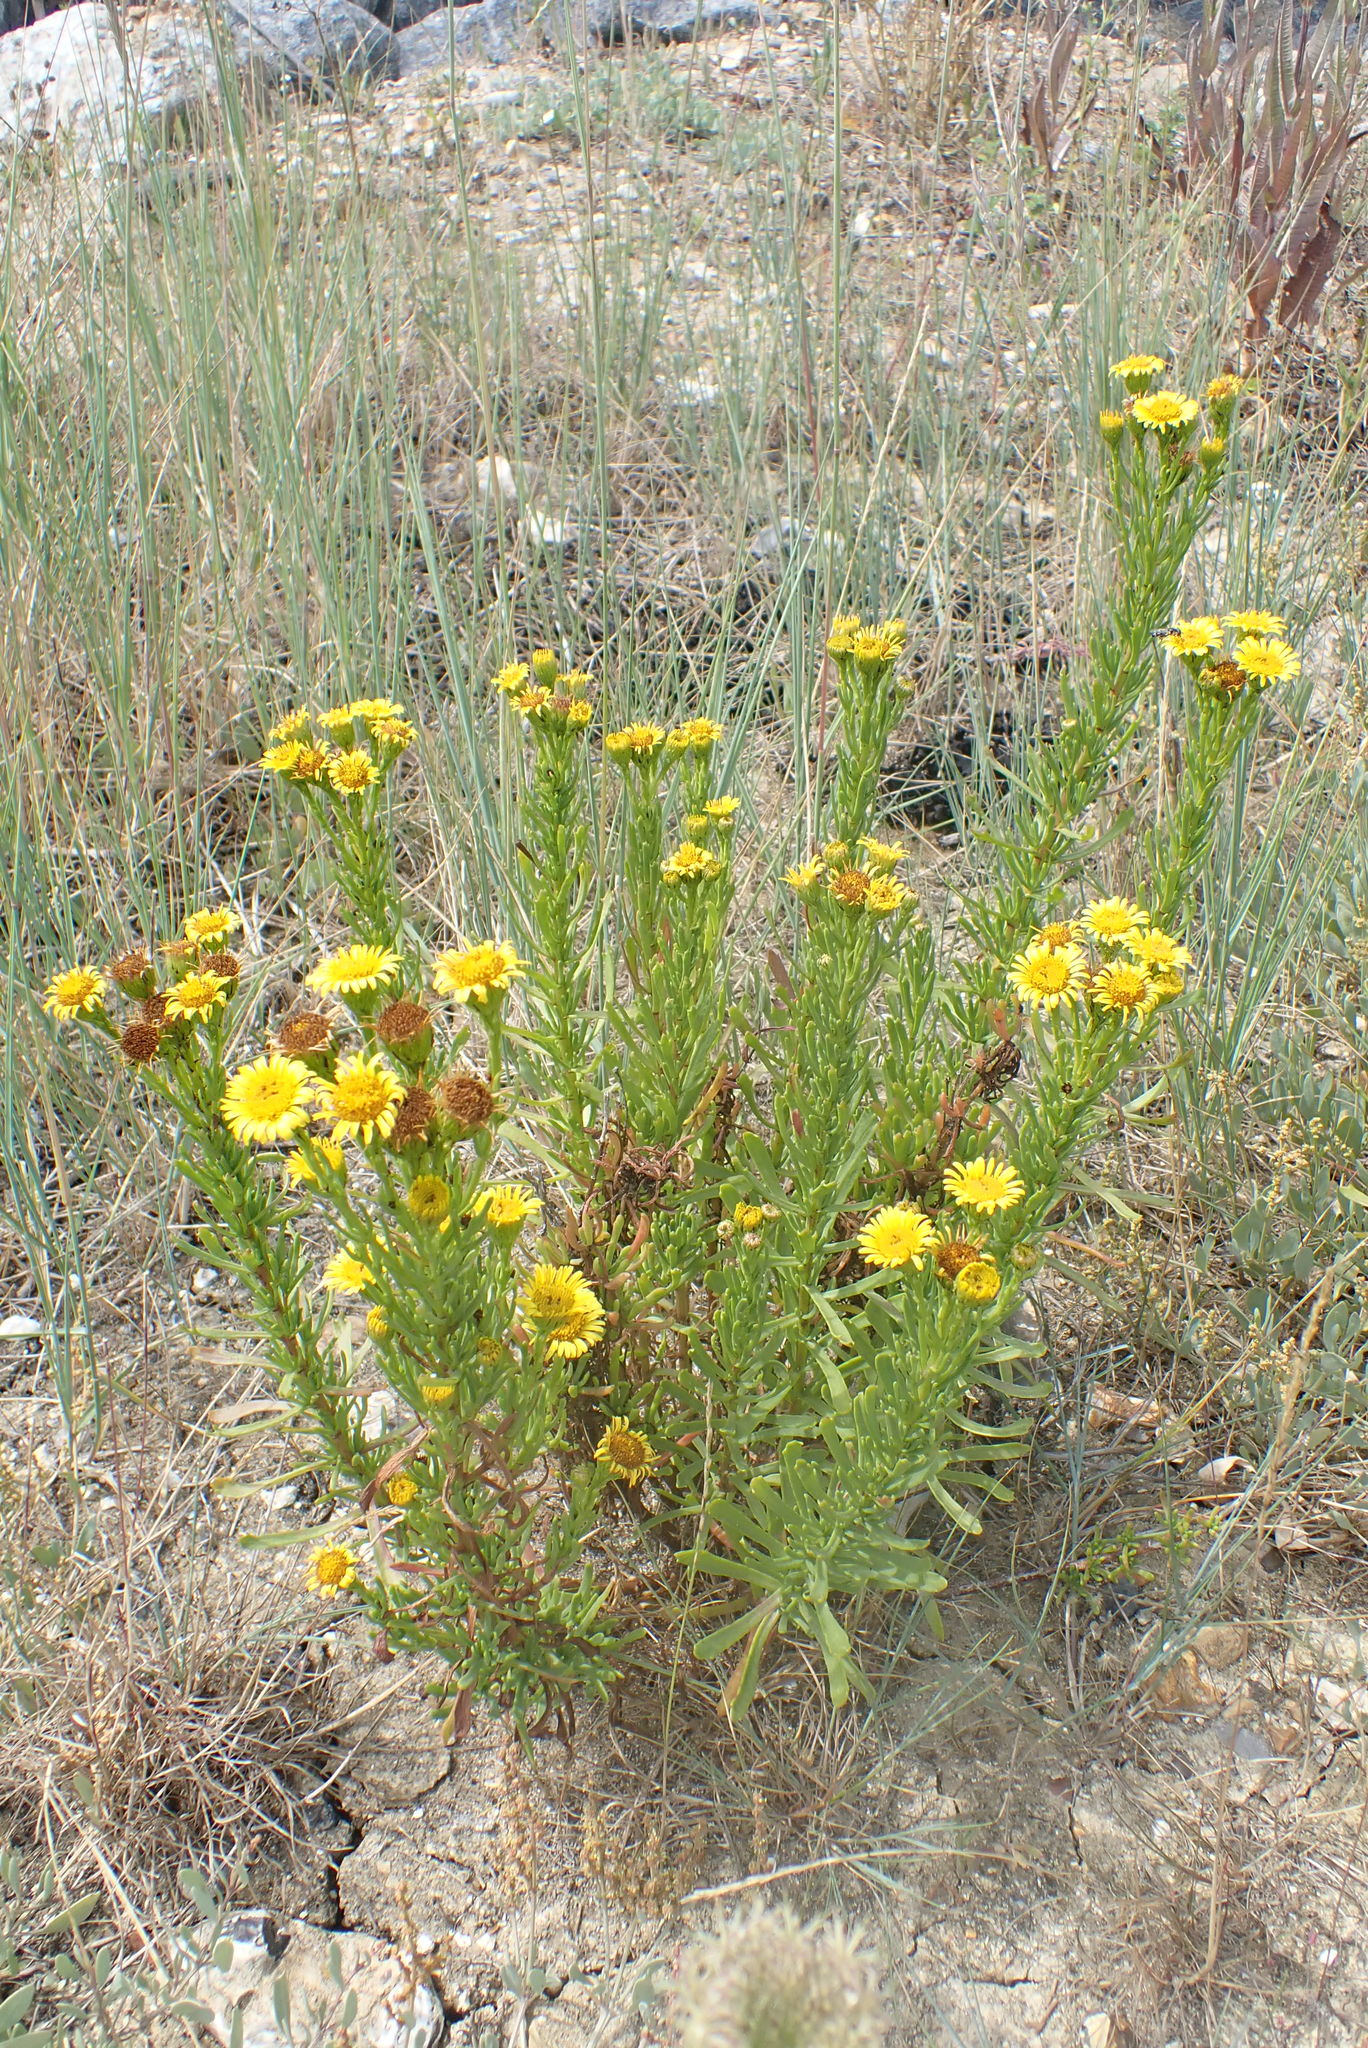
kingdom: Plantae
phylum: Tracheophyta
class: Magnoliopsida
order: Asterales
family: Asteraceae
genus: Limbarda
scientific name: Limbarda crithmoides
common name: Golden samphire
